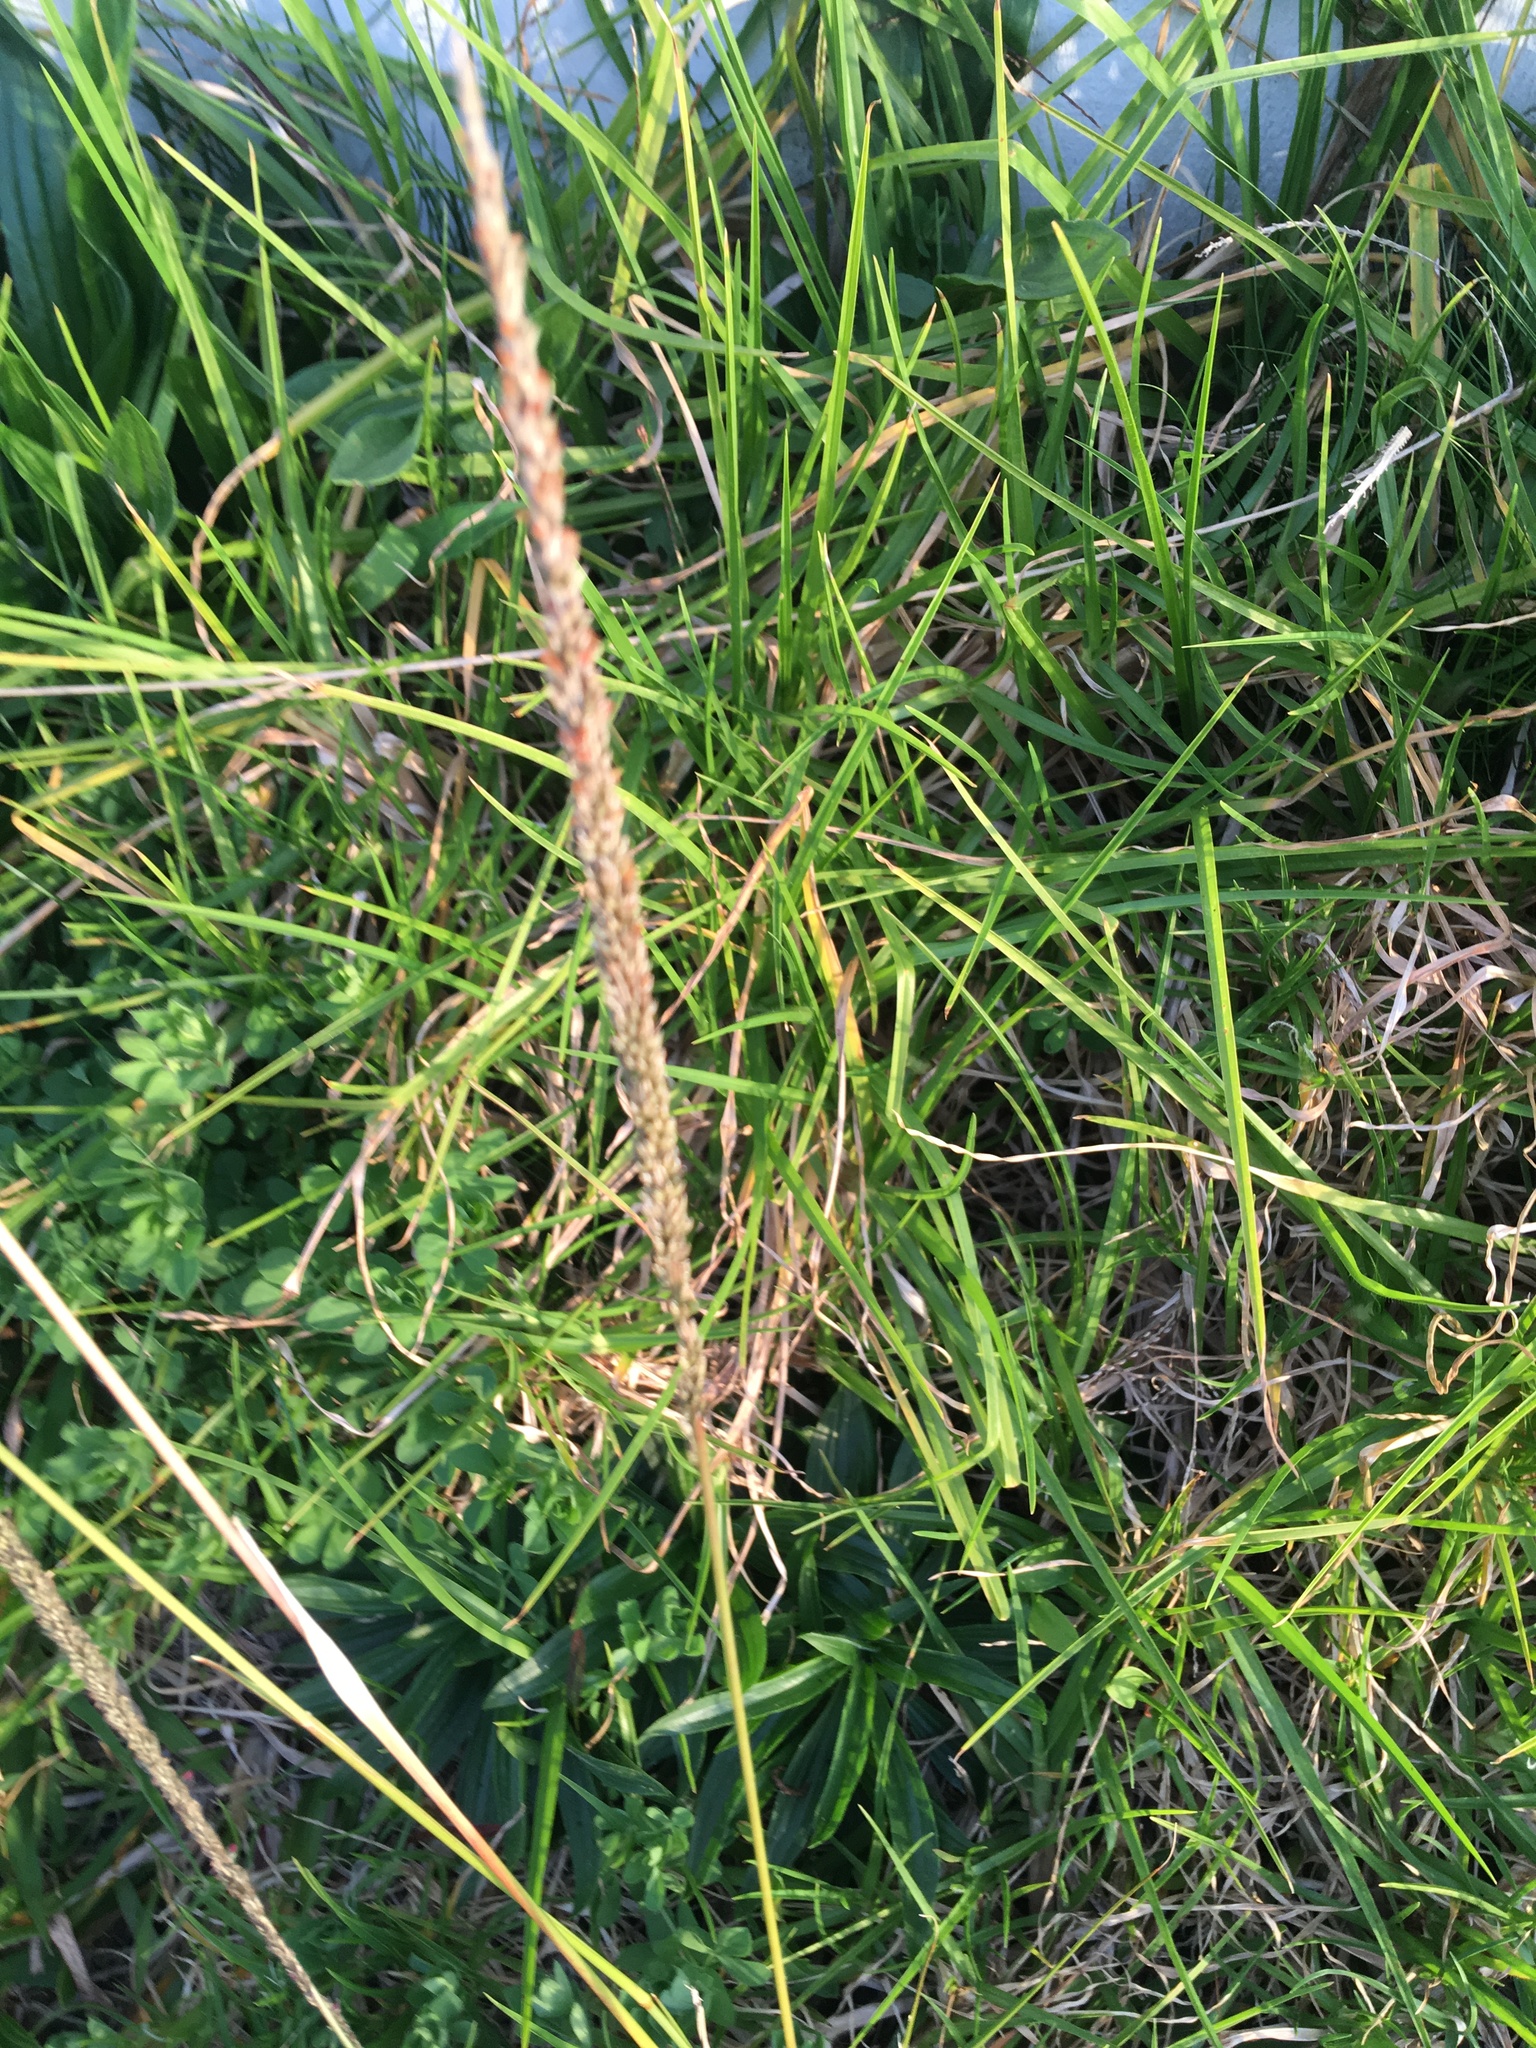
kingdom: Plantae
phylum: Tracheophyta
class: Liliopsida
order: Poales
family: Poaceae
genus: Cenchrus
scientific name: Cenchrus clandestinus
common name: Kikuyugrass
